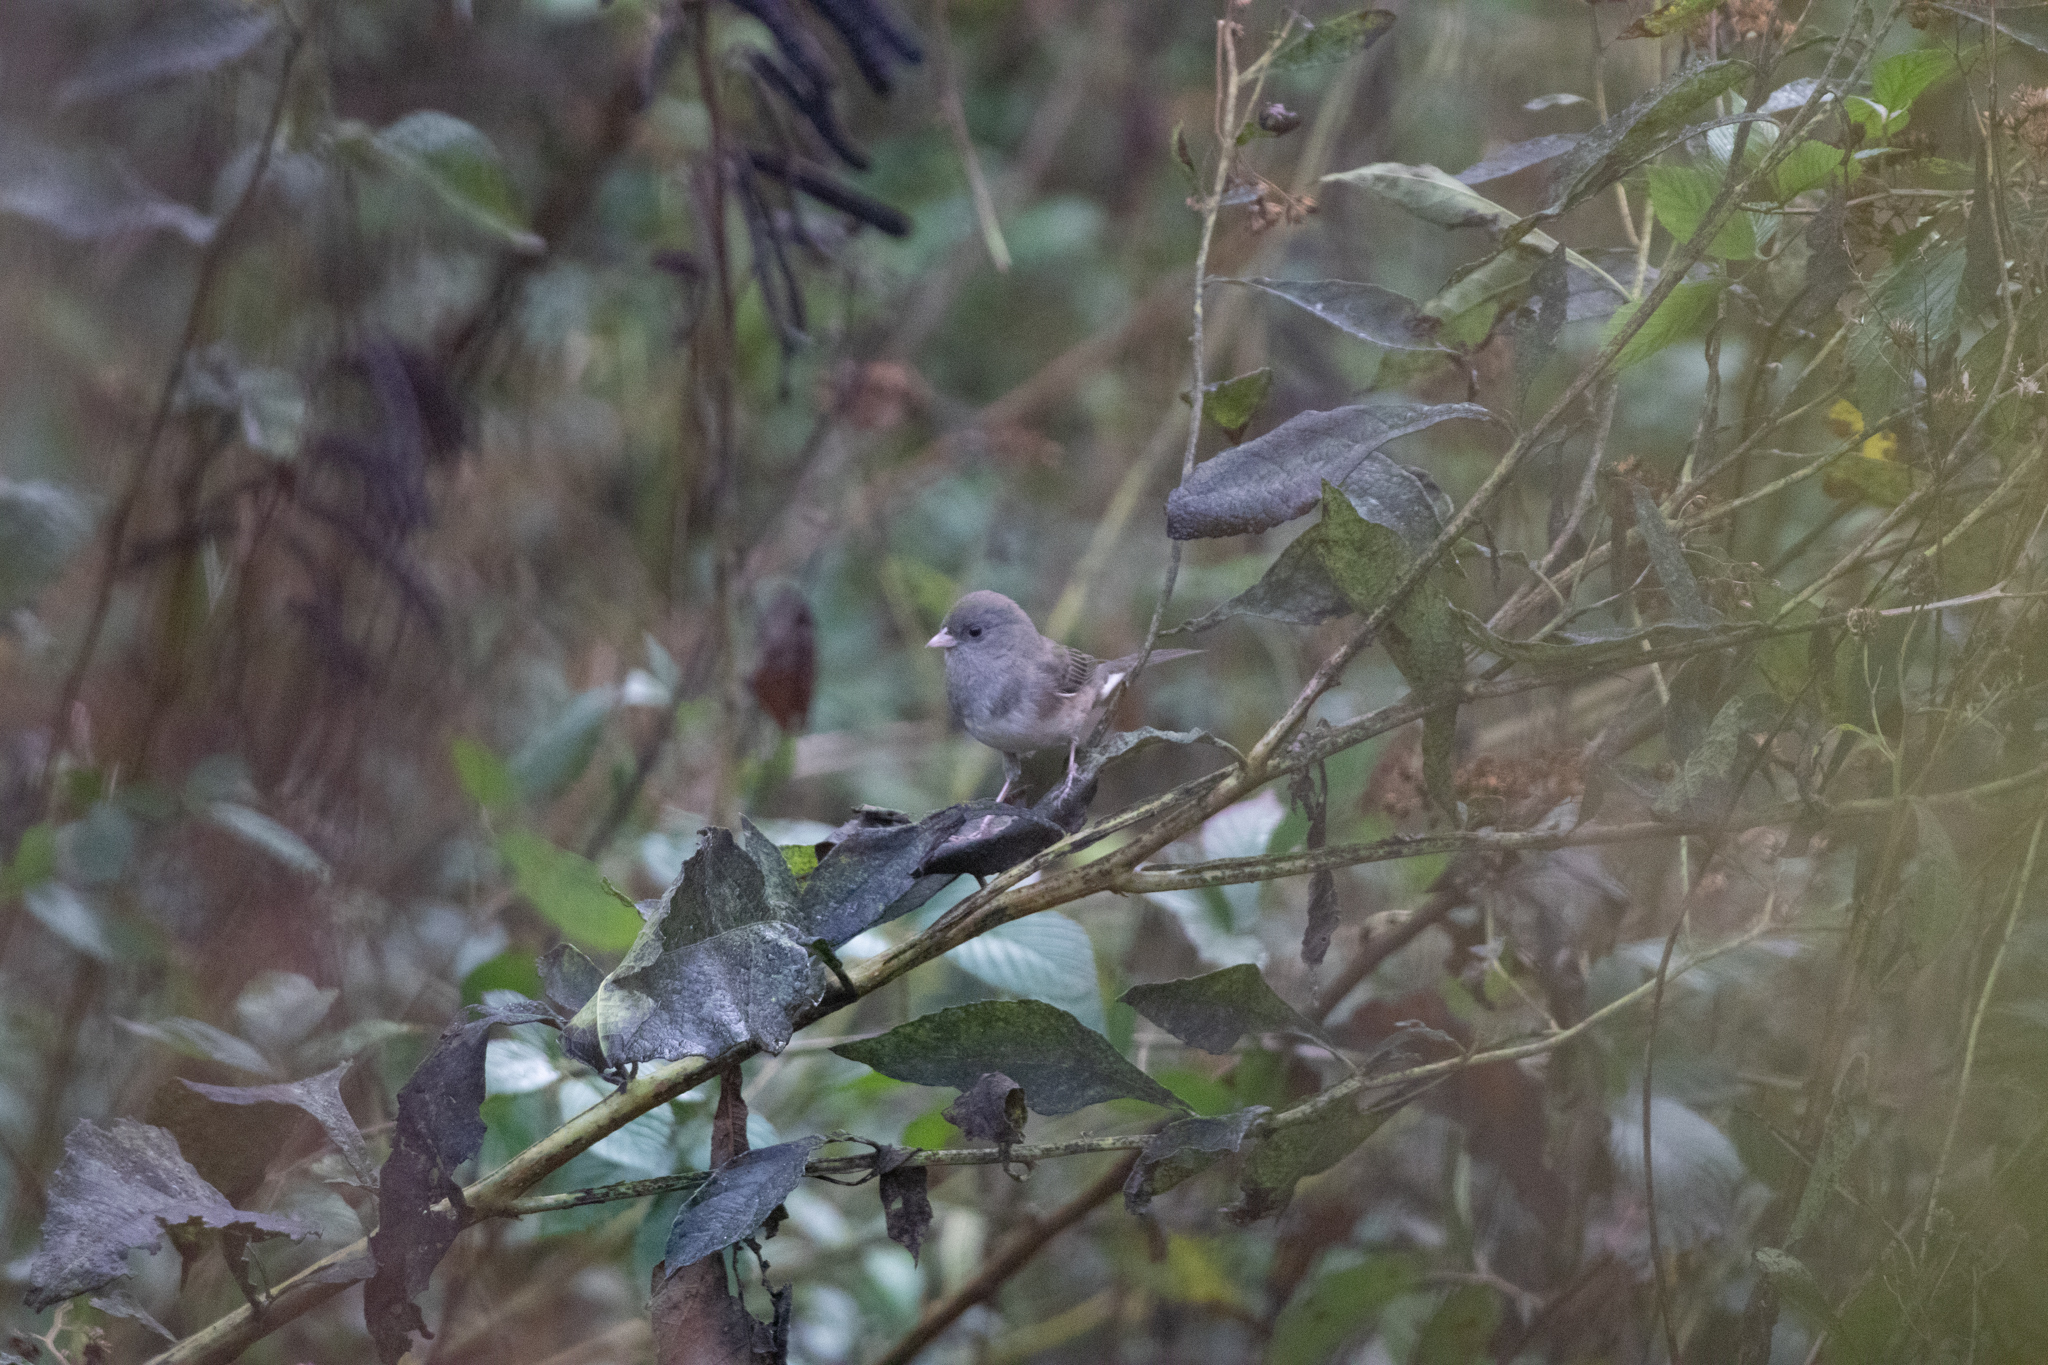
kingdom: Animalia
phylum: Chordata
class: Aves
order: Passeriformes
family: Passerellidae
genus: Junco
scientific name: Junco hyemalis
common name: Dark-eyed junco
